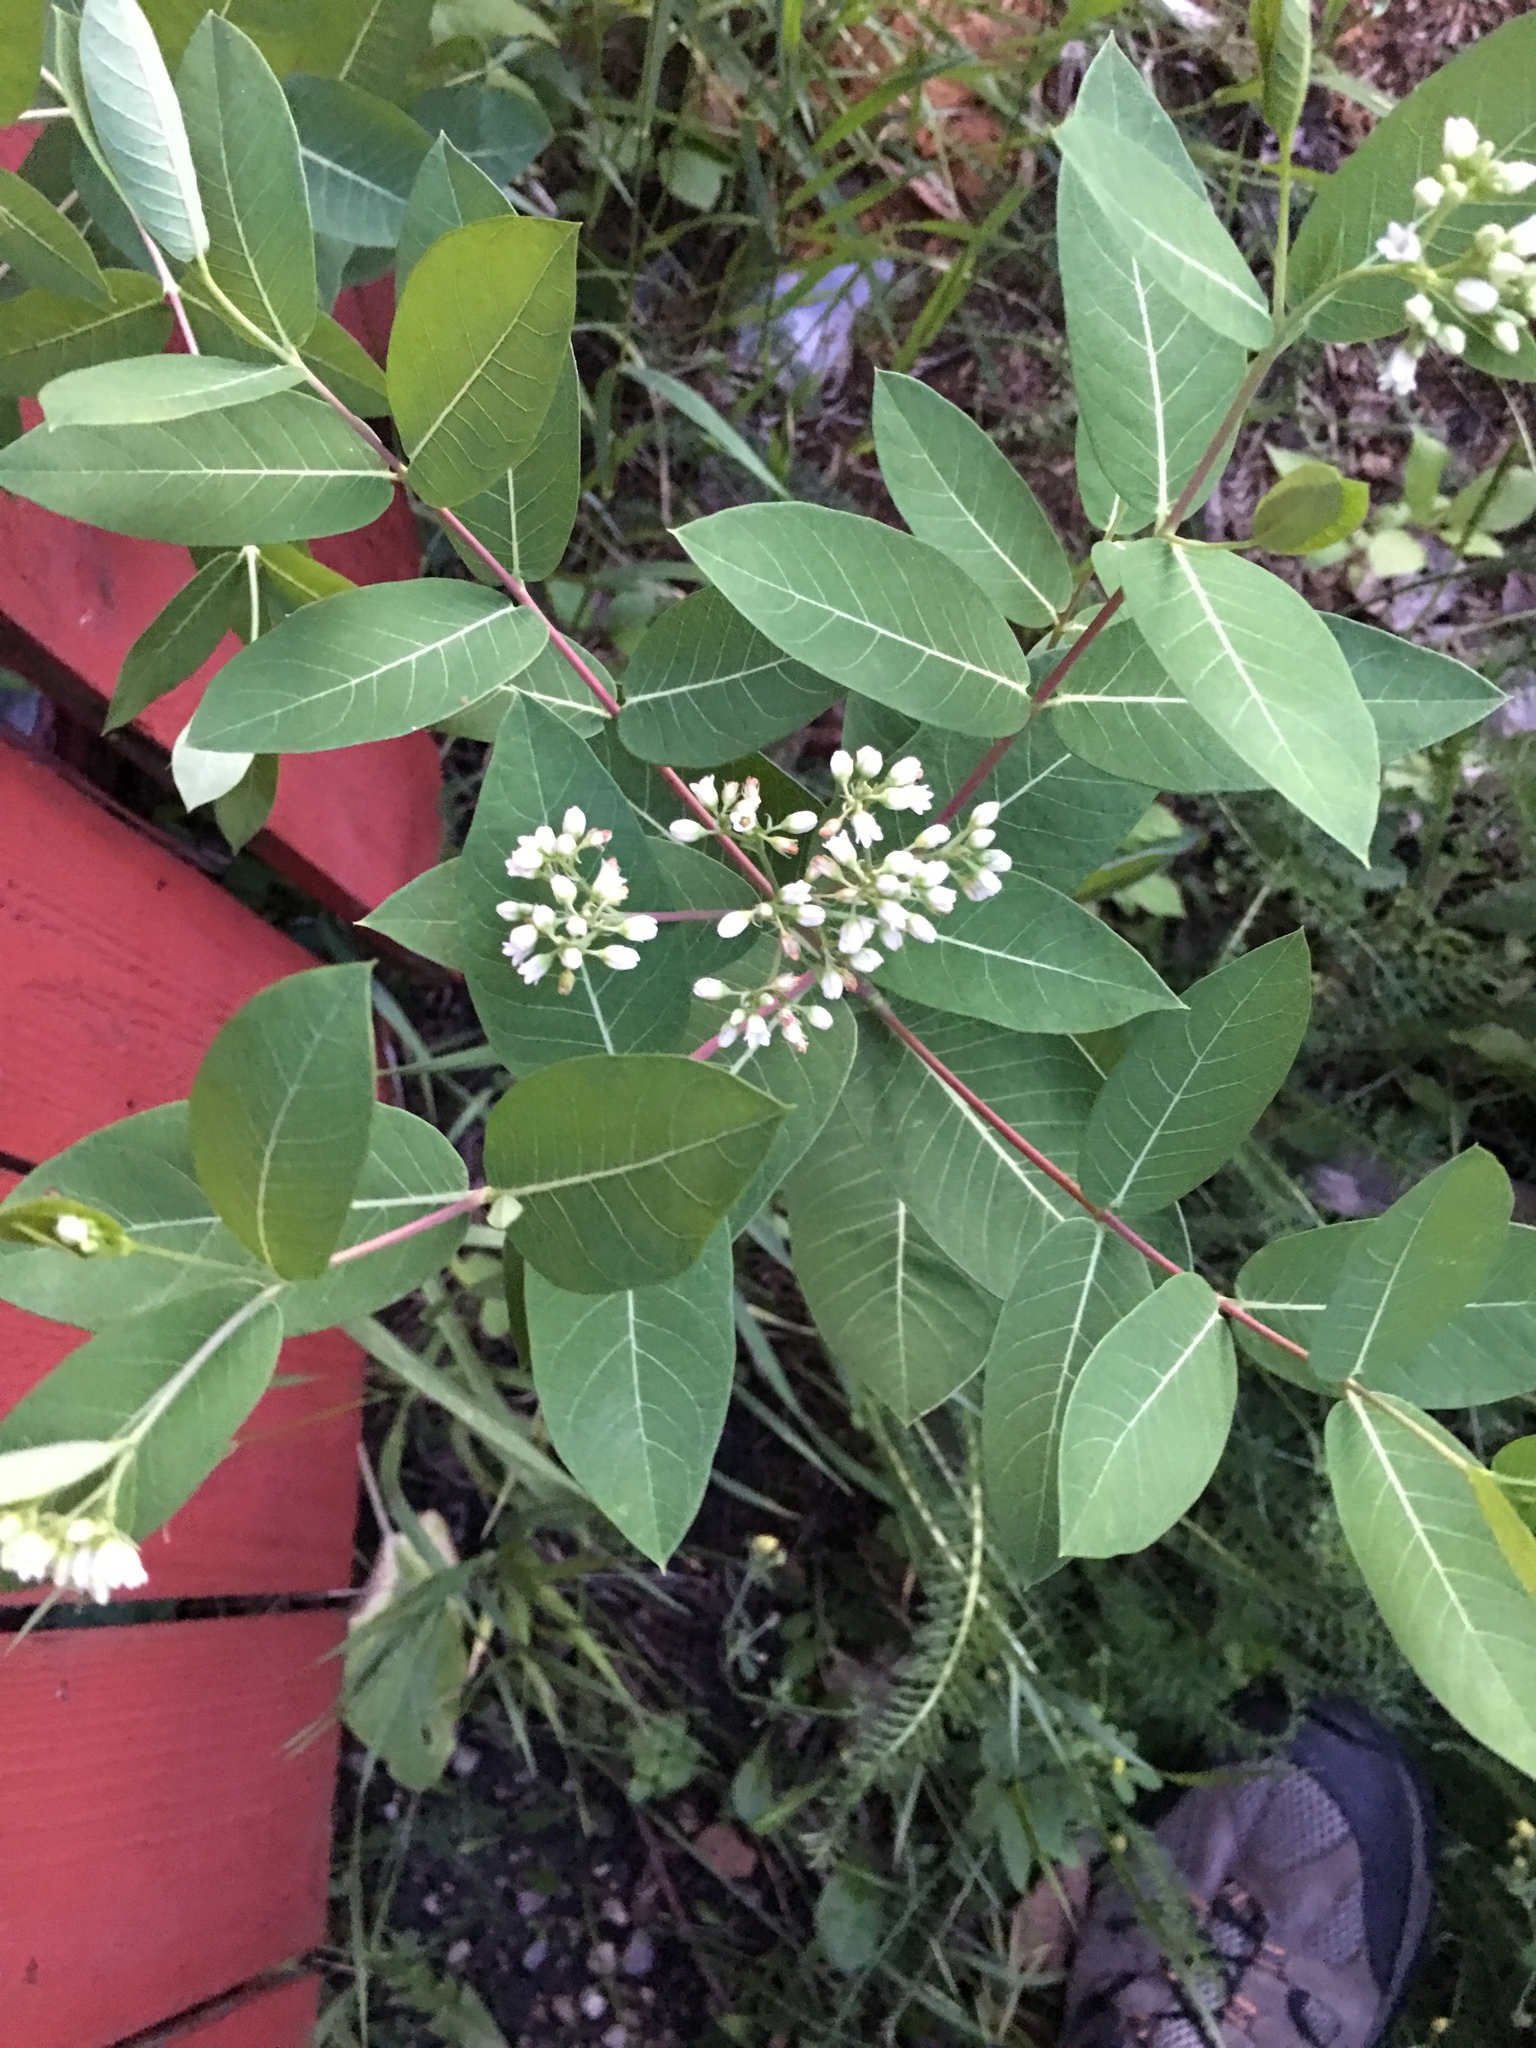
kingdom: Plantae
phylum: Tracheophyta
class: Magnoliopsida
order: Gentianales
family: Apocynaceae
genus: Apocynum
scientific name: Apocynum cannabinum
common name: Hemp dogbane
